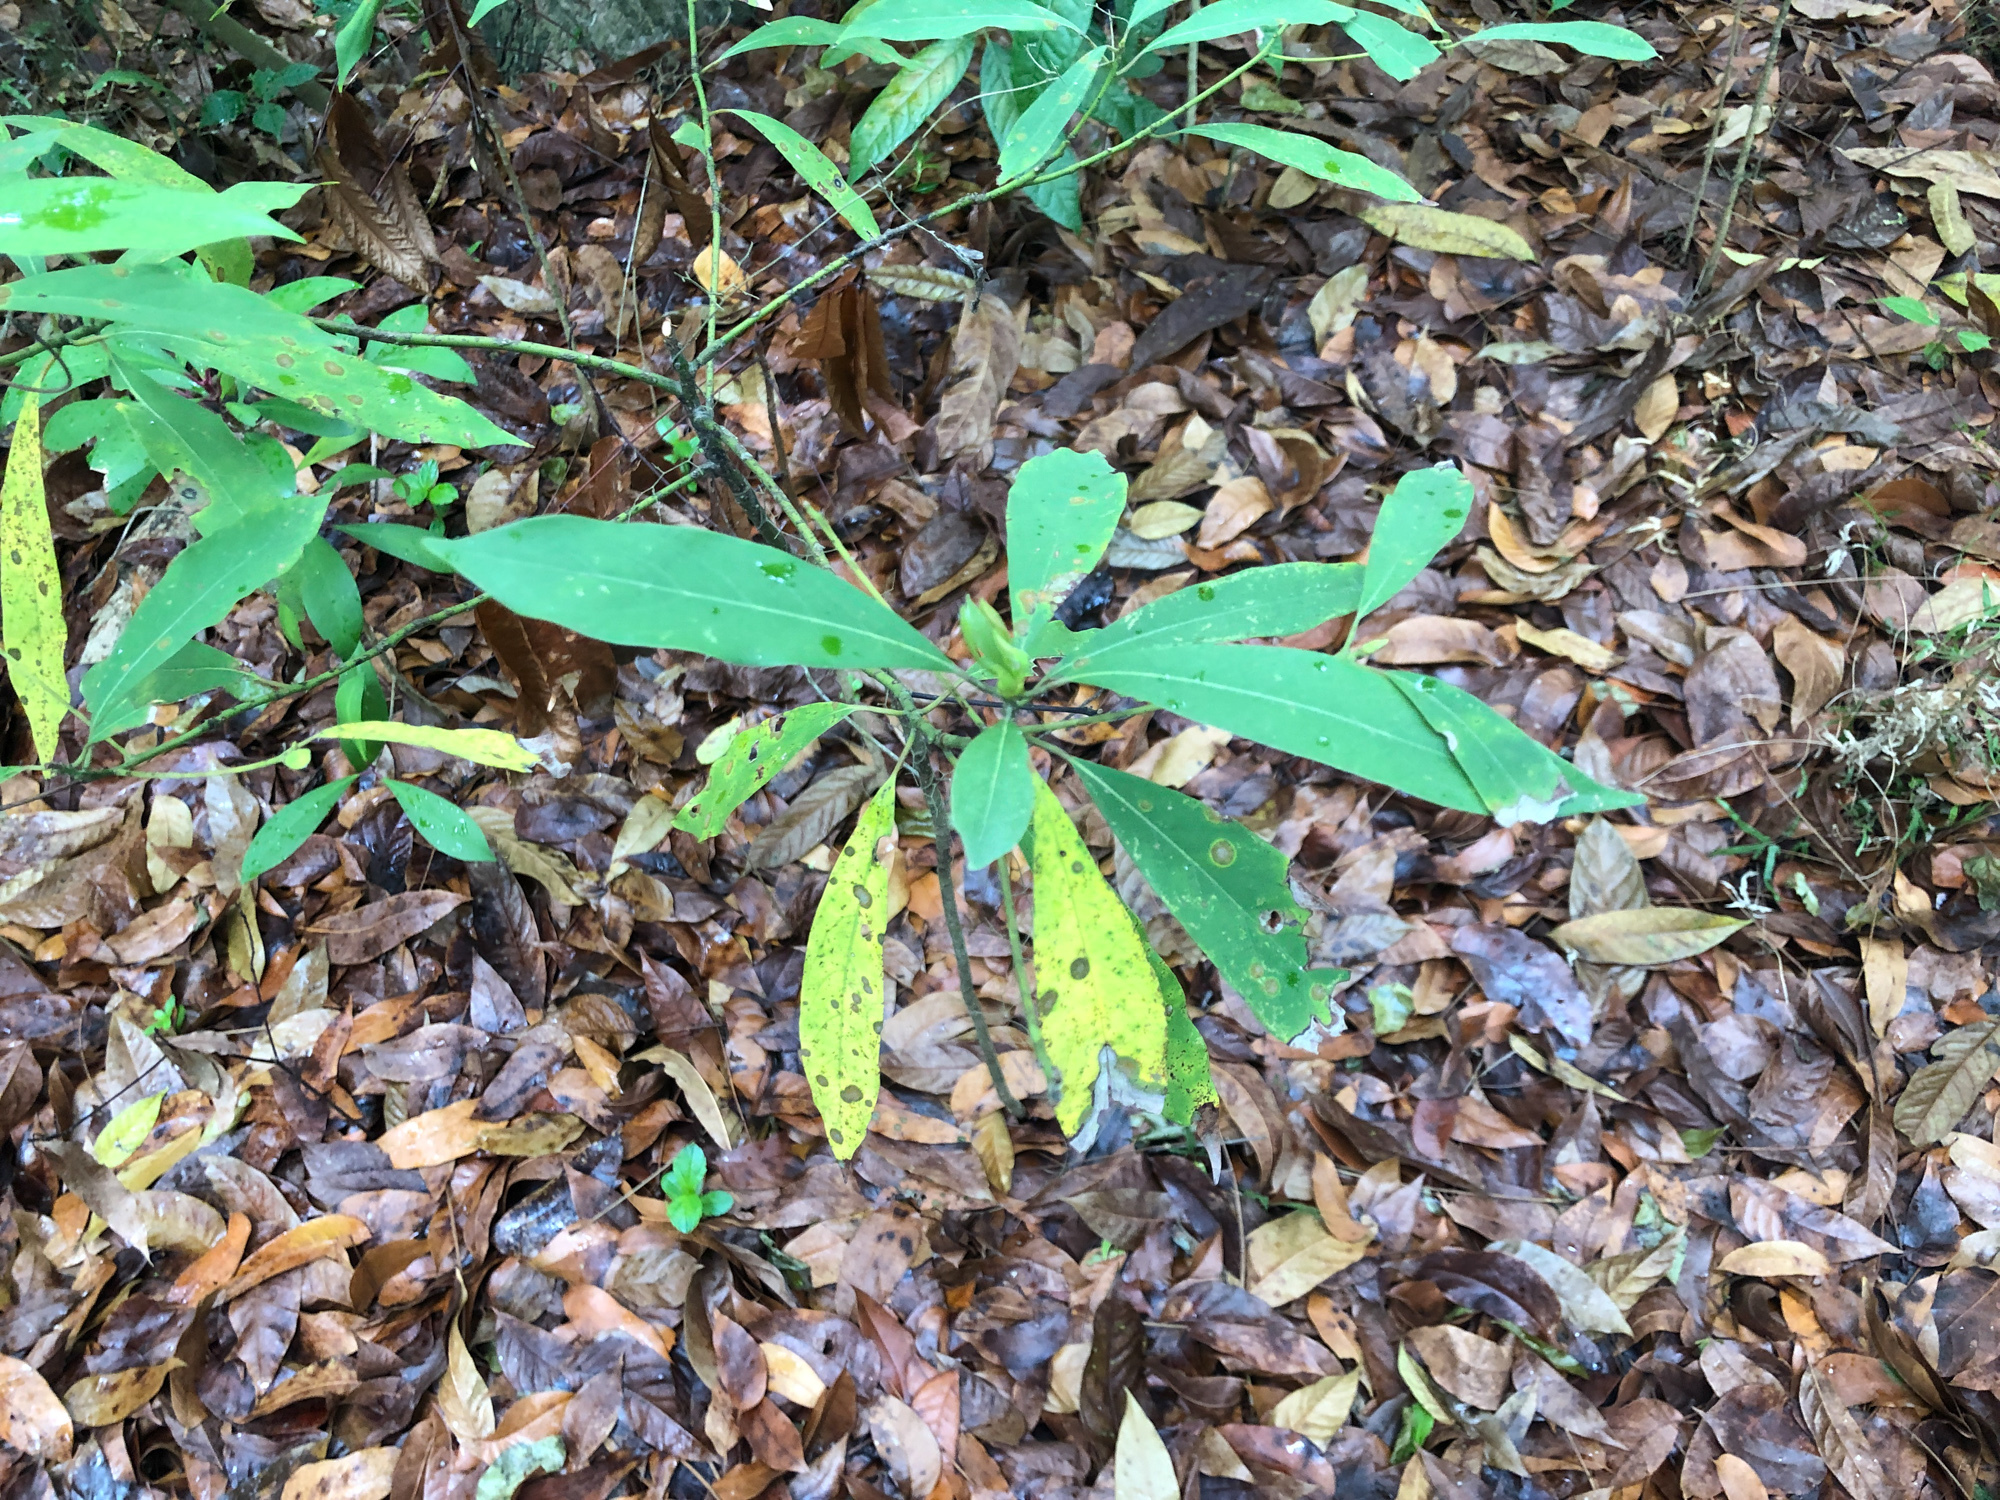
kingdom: Plantae
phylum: Tracheophyta
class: Magnoliopsida
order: Laurales
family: Lauraceae
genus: Machilus
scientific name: Machilus zuihoensis
